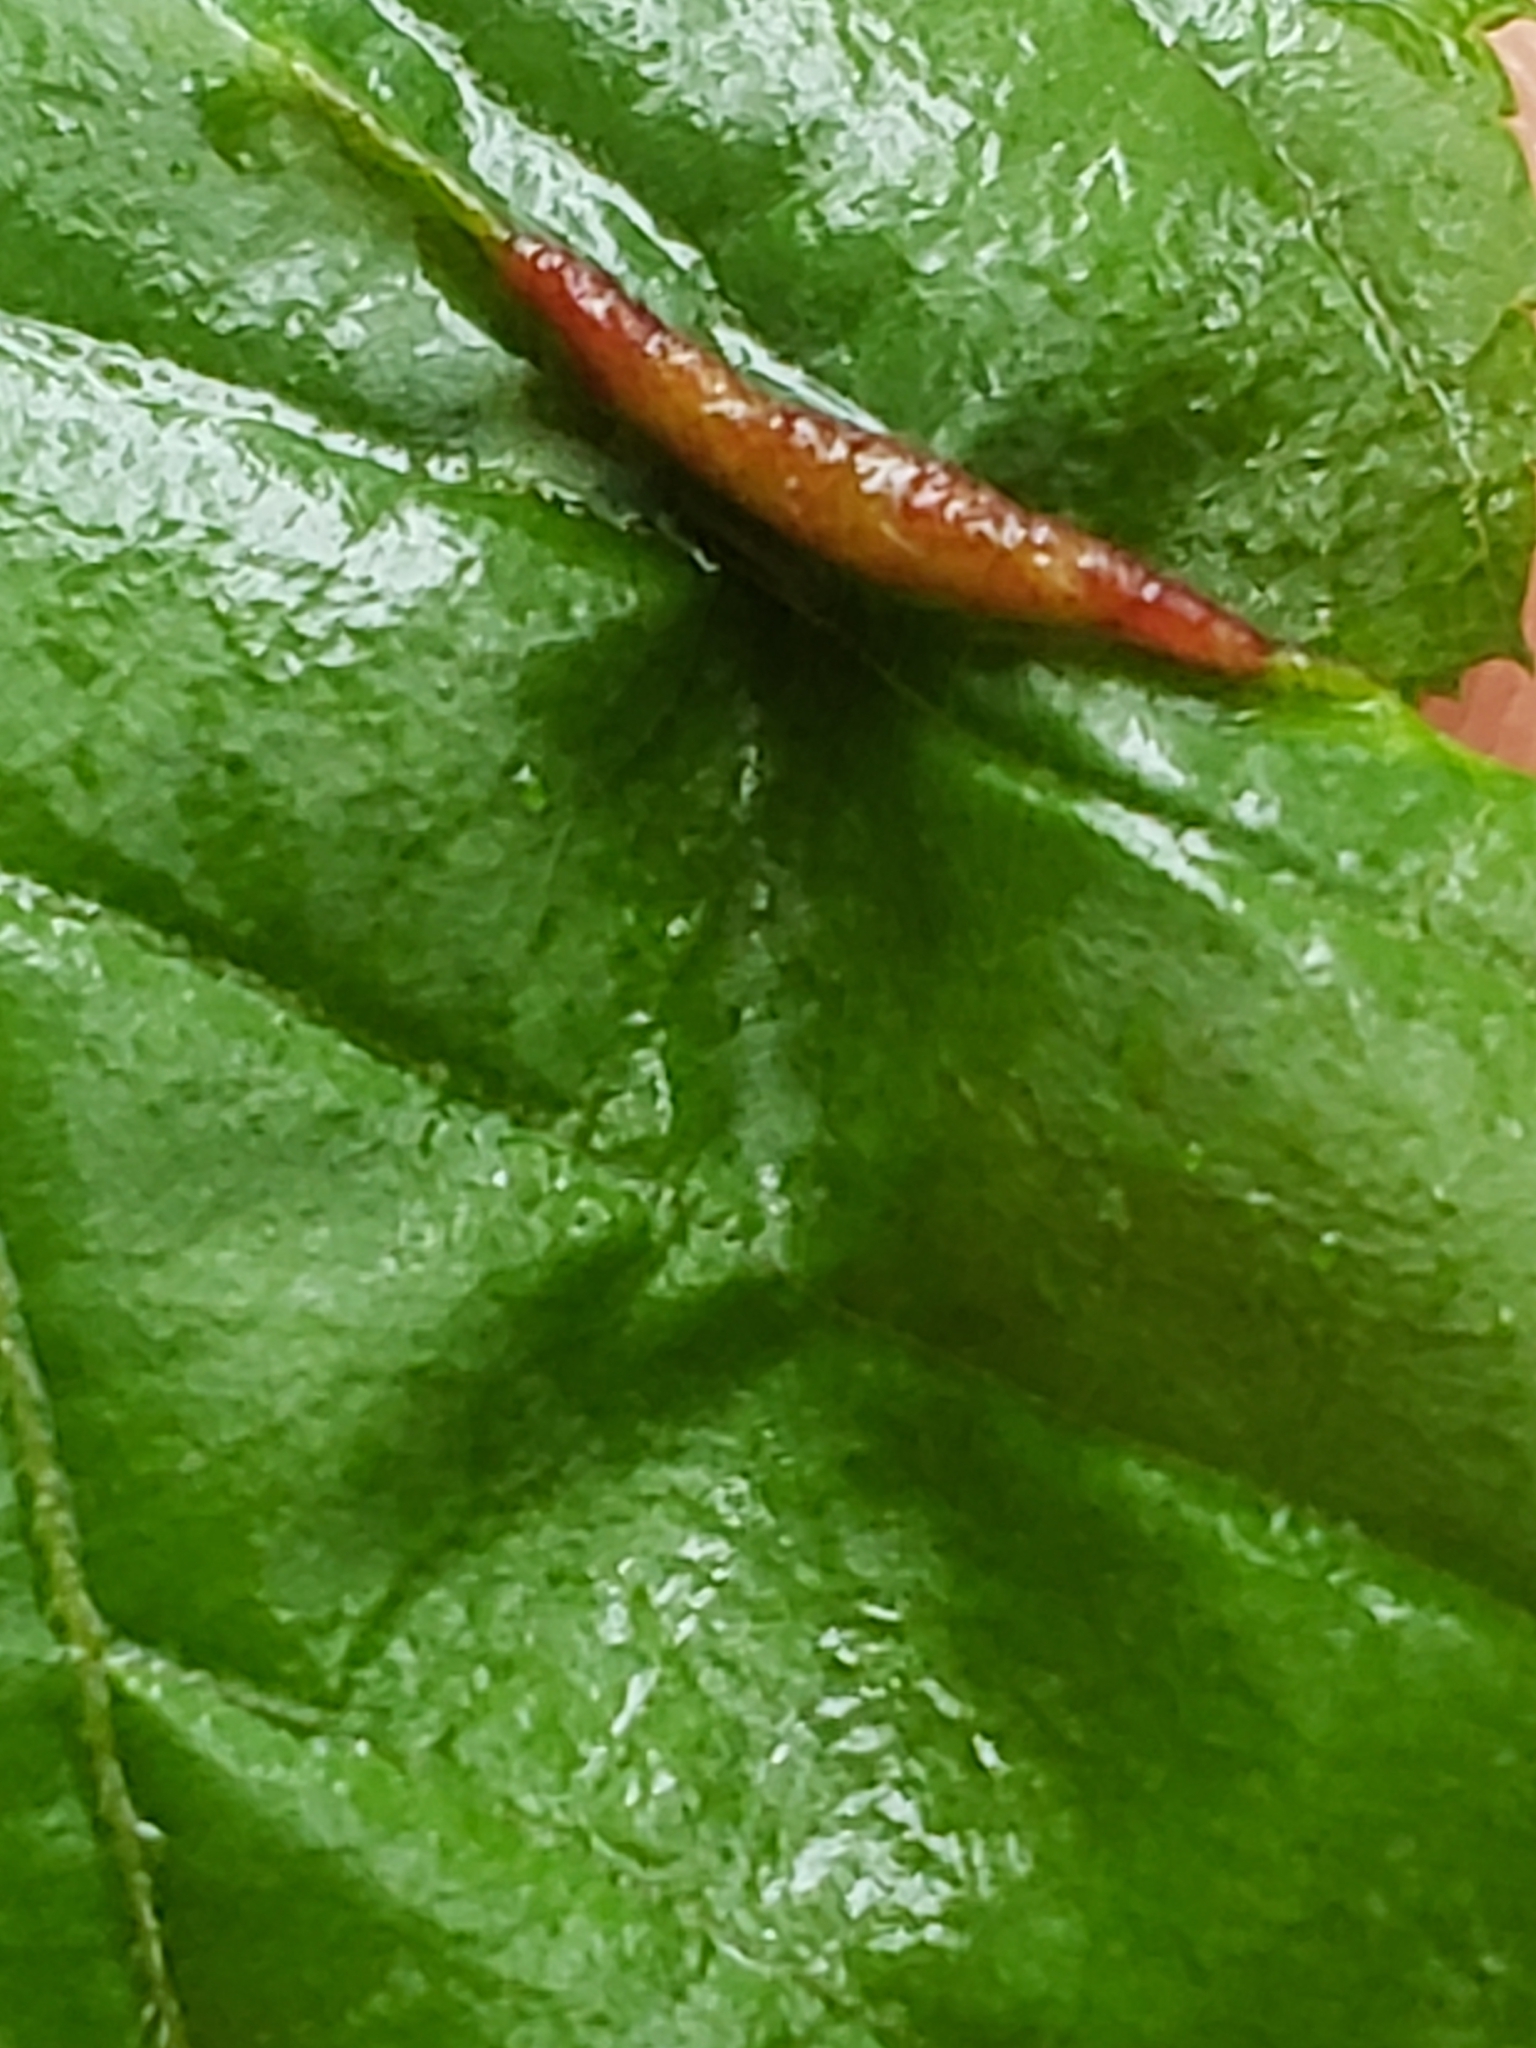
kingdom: Animalia
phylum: Arthropoda
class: Insecta
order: Diptera
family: Cecidomyiidae
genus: Dasineura
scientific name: Dasineura pudibunda
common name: Hornbeam leaf gall midge
